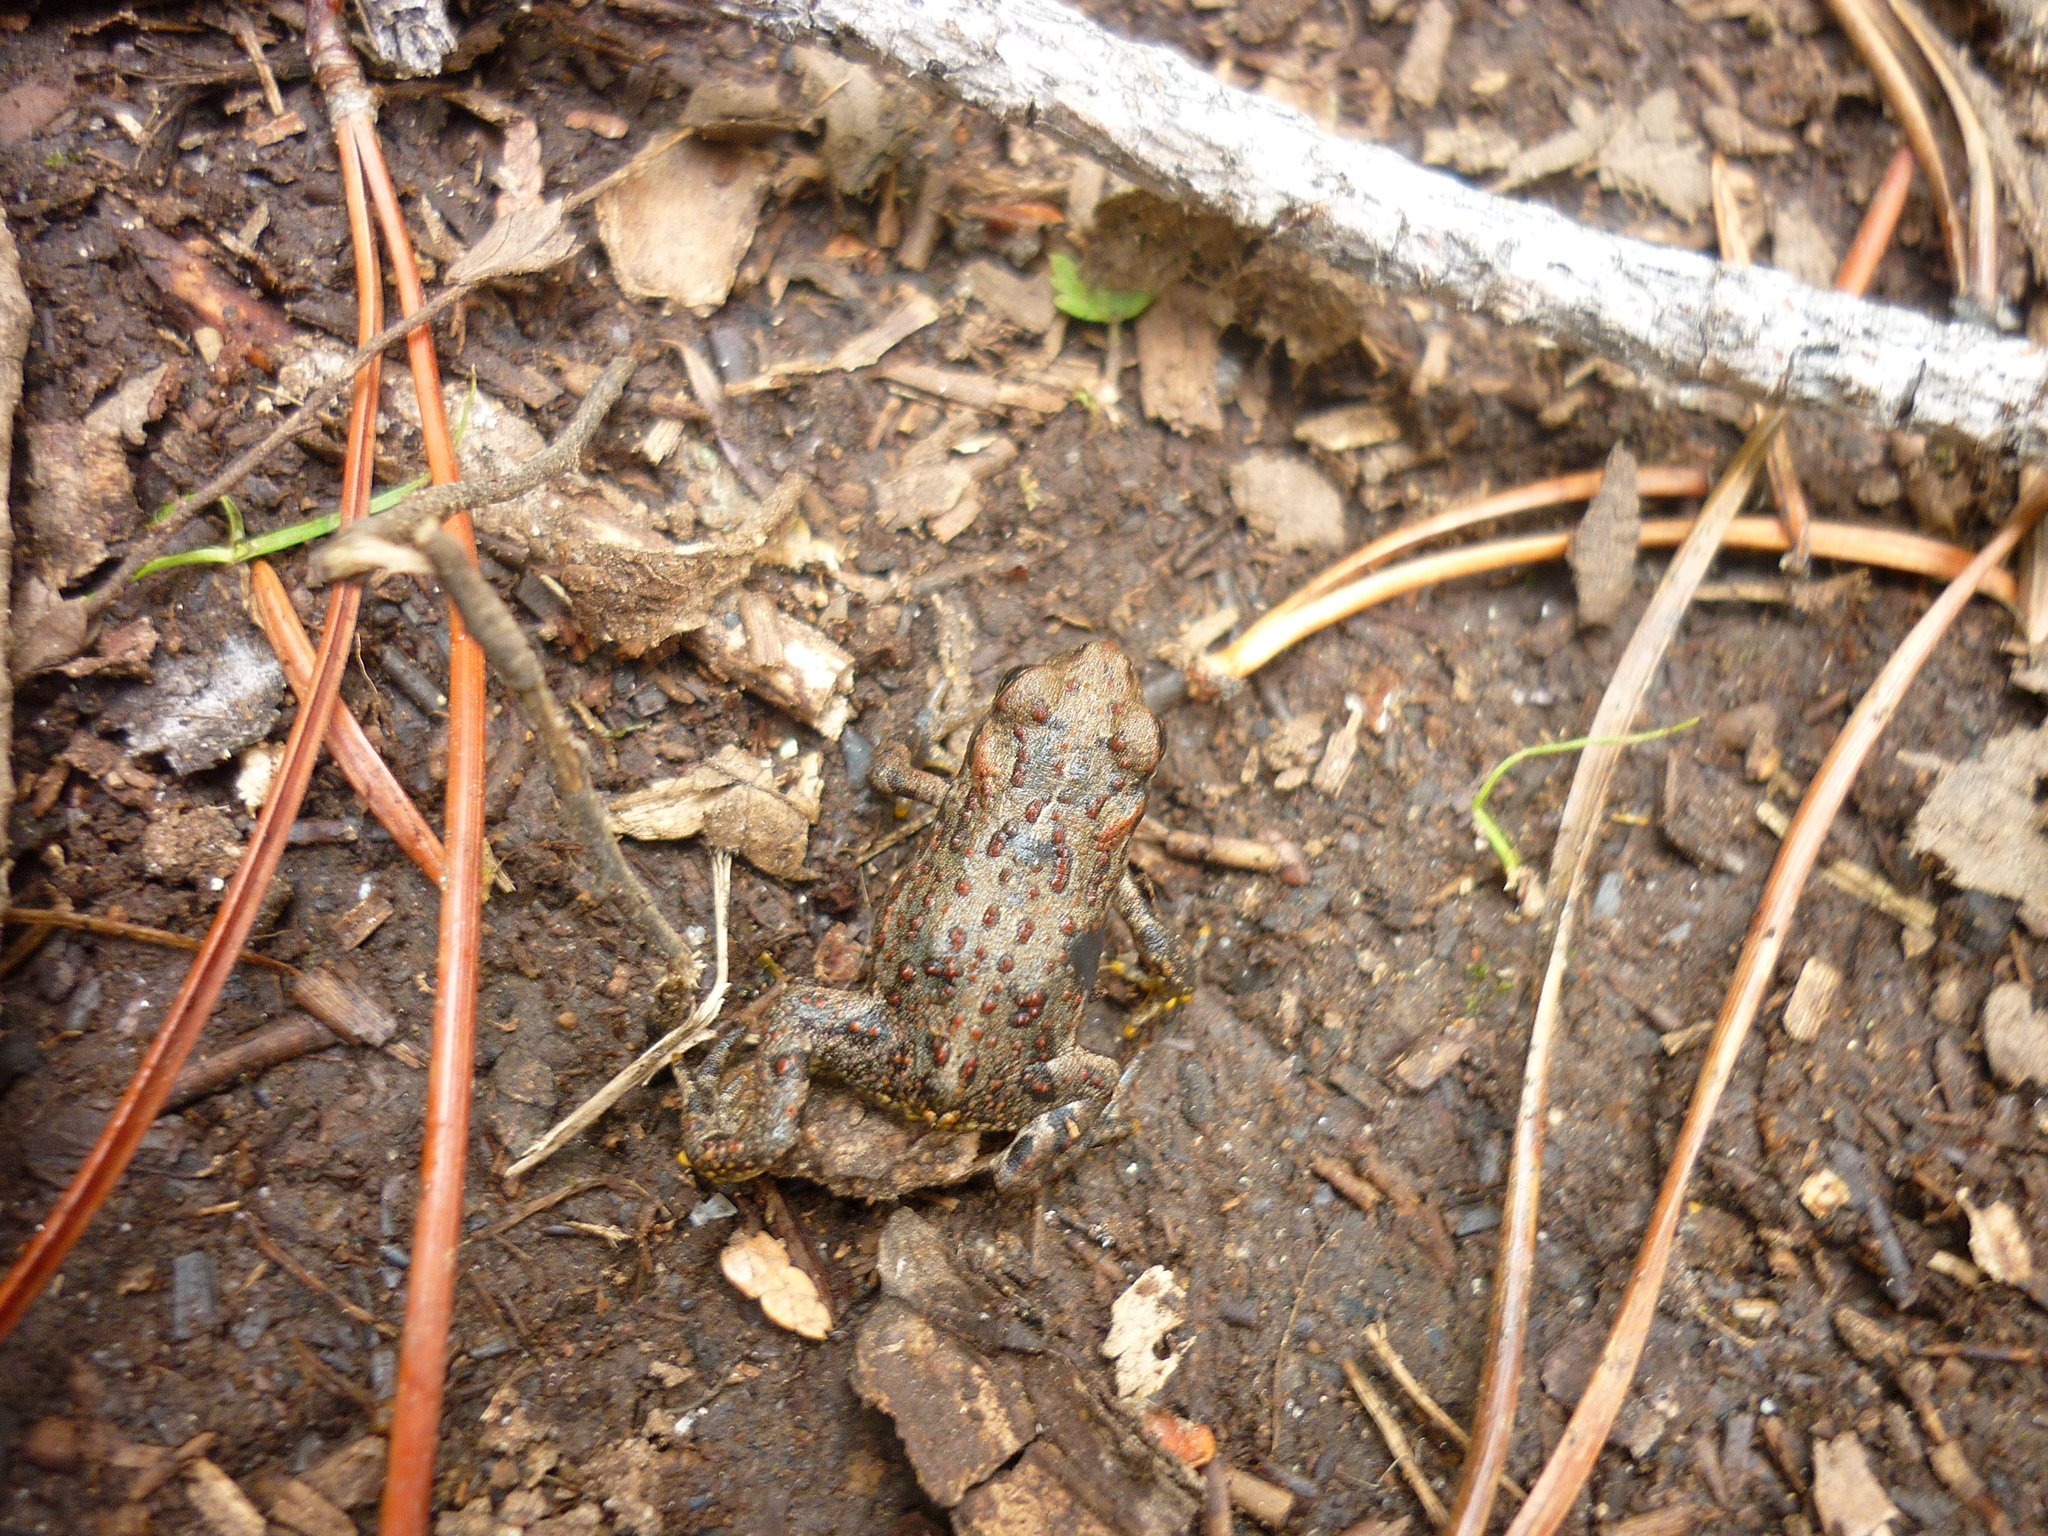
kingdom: Animalia
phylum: Chordata
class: Amphibia
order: Anura
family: Bufonidae
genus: Anaxyrus
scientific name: Anaxyrus boreas
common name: Western toad
